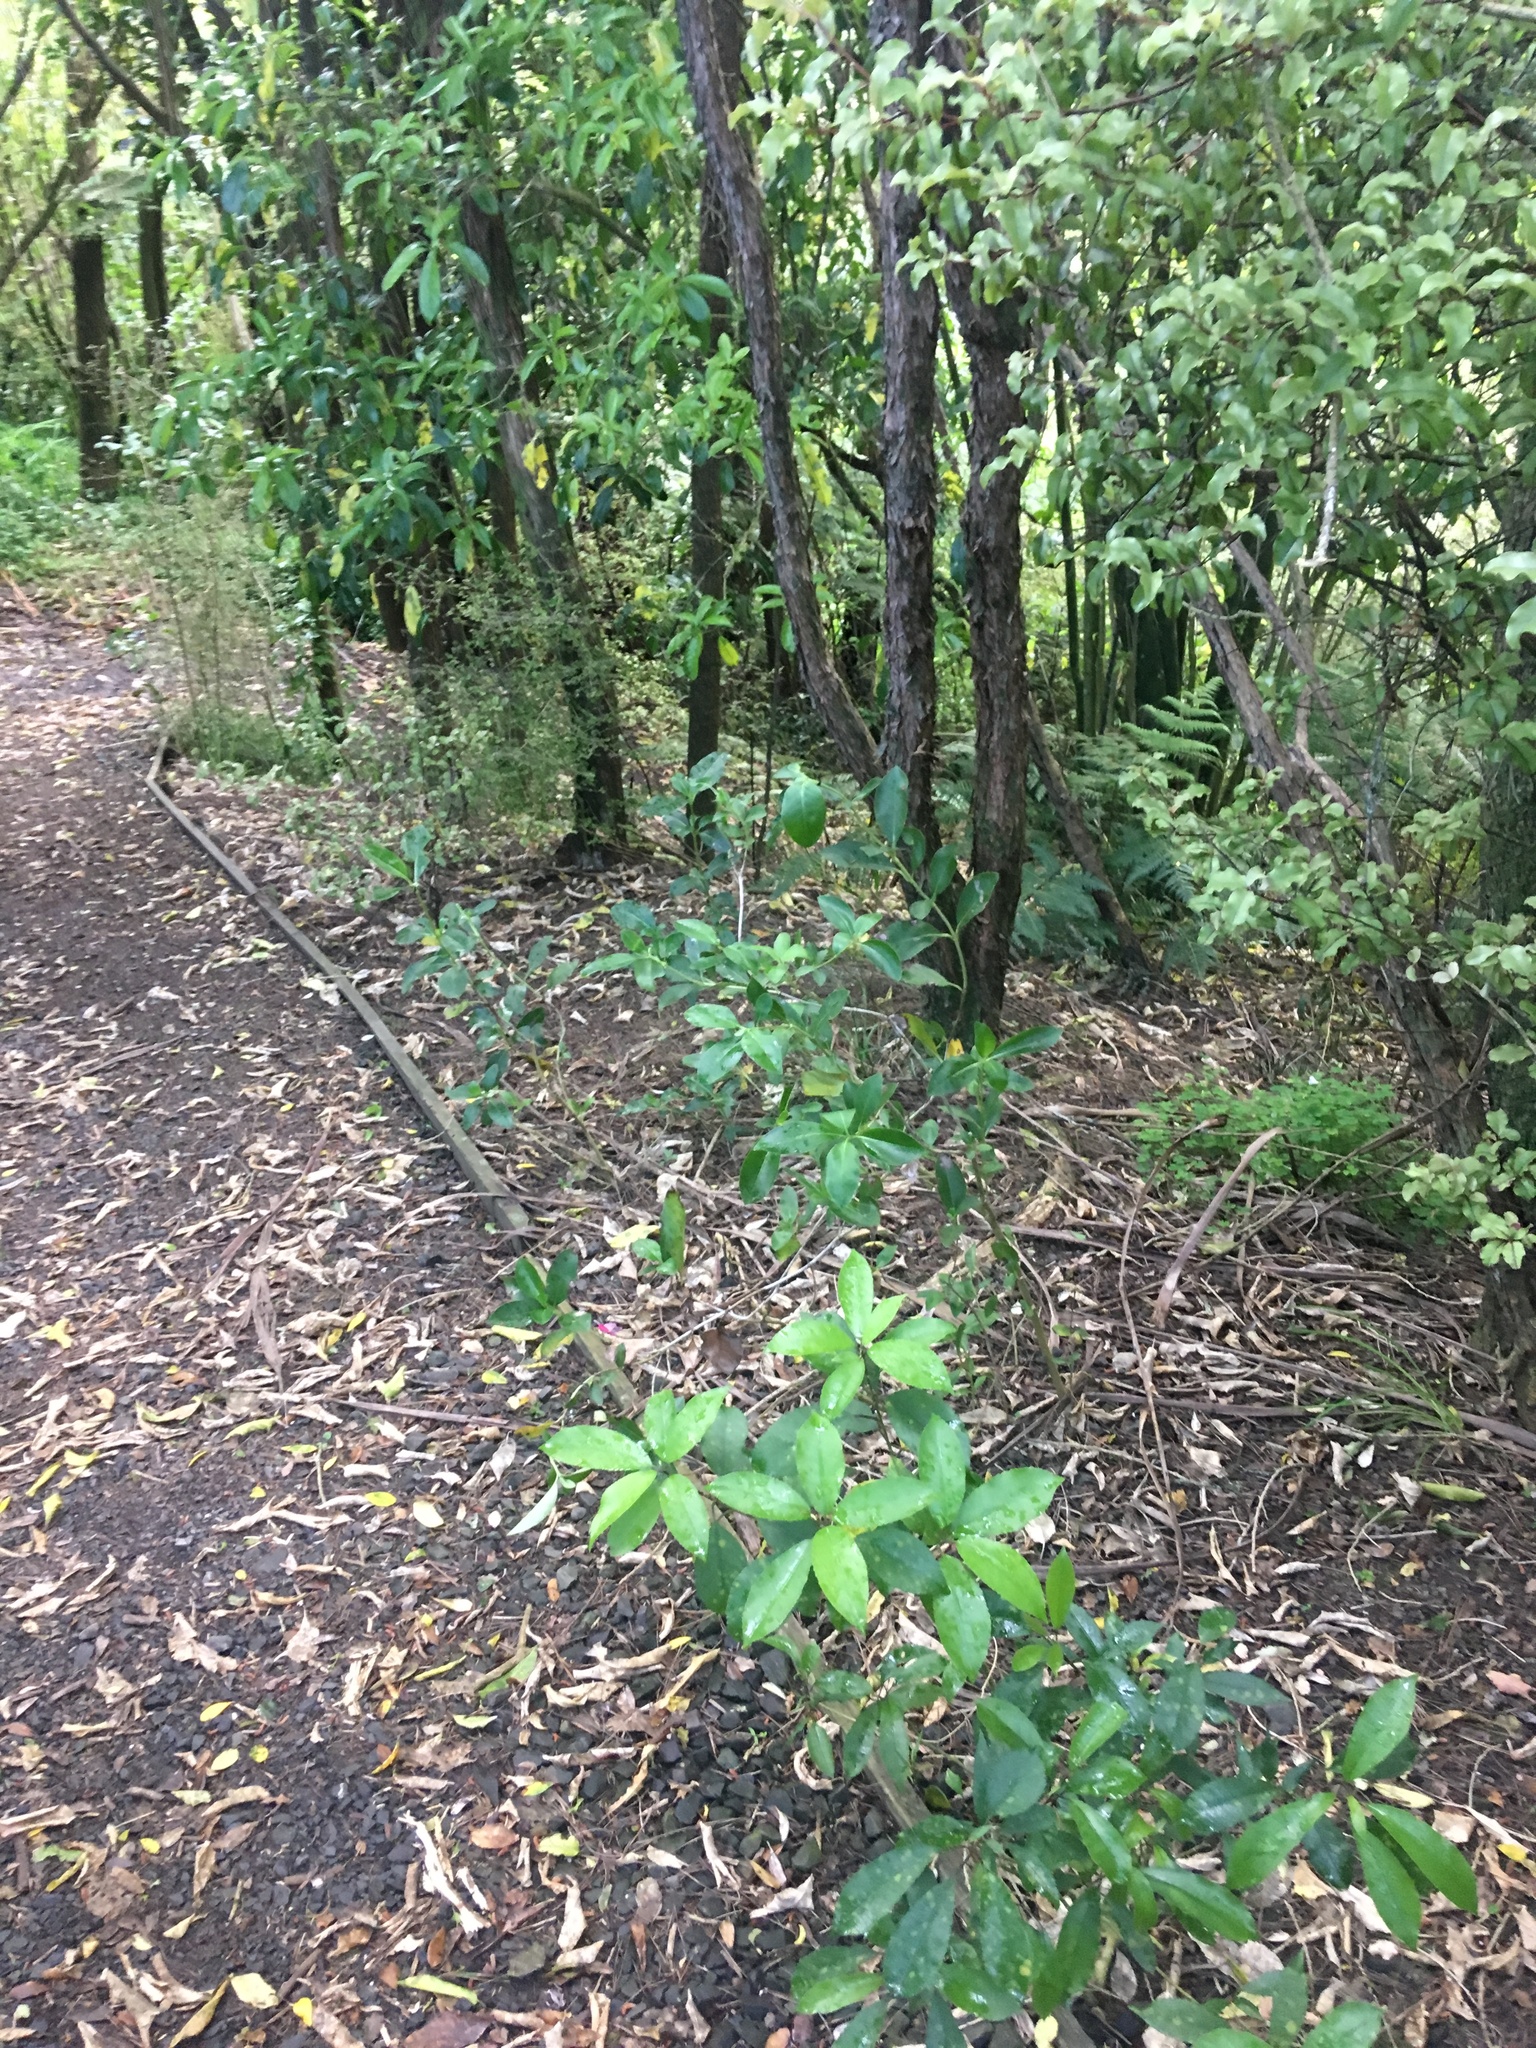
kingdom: Plantae
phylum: Tracheophyta
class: Magnoliopsida
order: Malpighiales
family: Violaceae
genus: Melicytus
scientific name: Melicytus ramiflorus
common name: Mahoe
